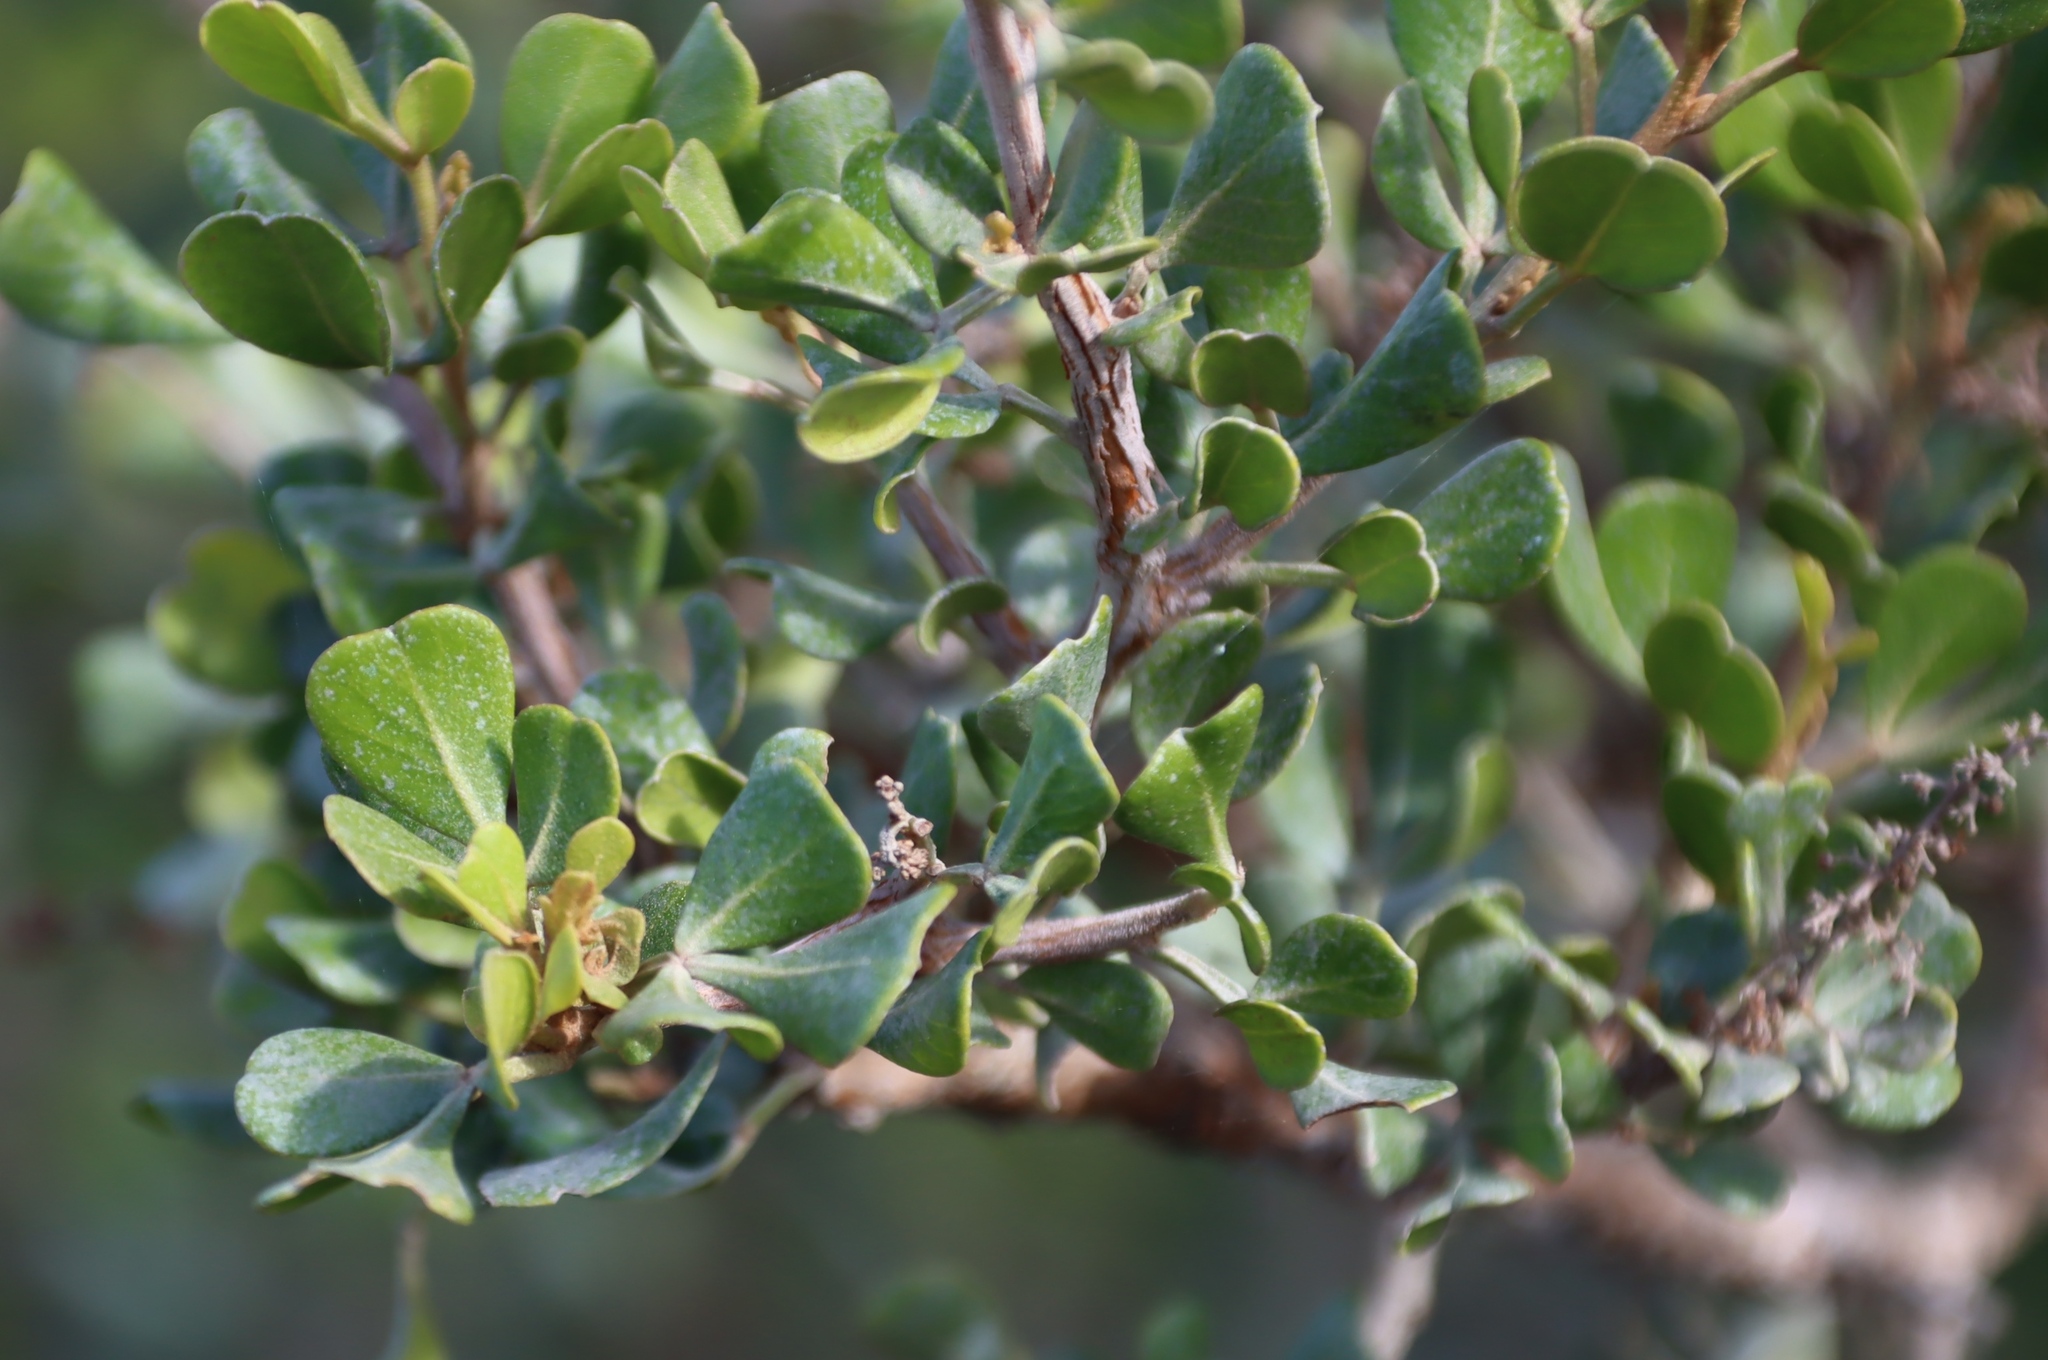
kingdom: Plantae
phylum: Tracheophyta
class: Magnoliopsida
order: Sapindales
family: Anacardiaceae
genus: Searsia
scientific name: Searsia glauca
